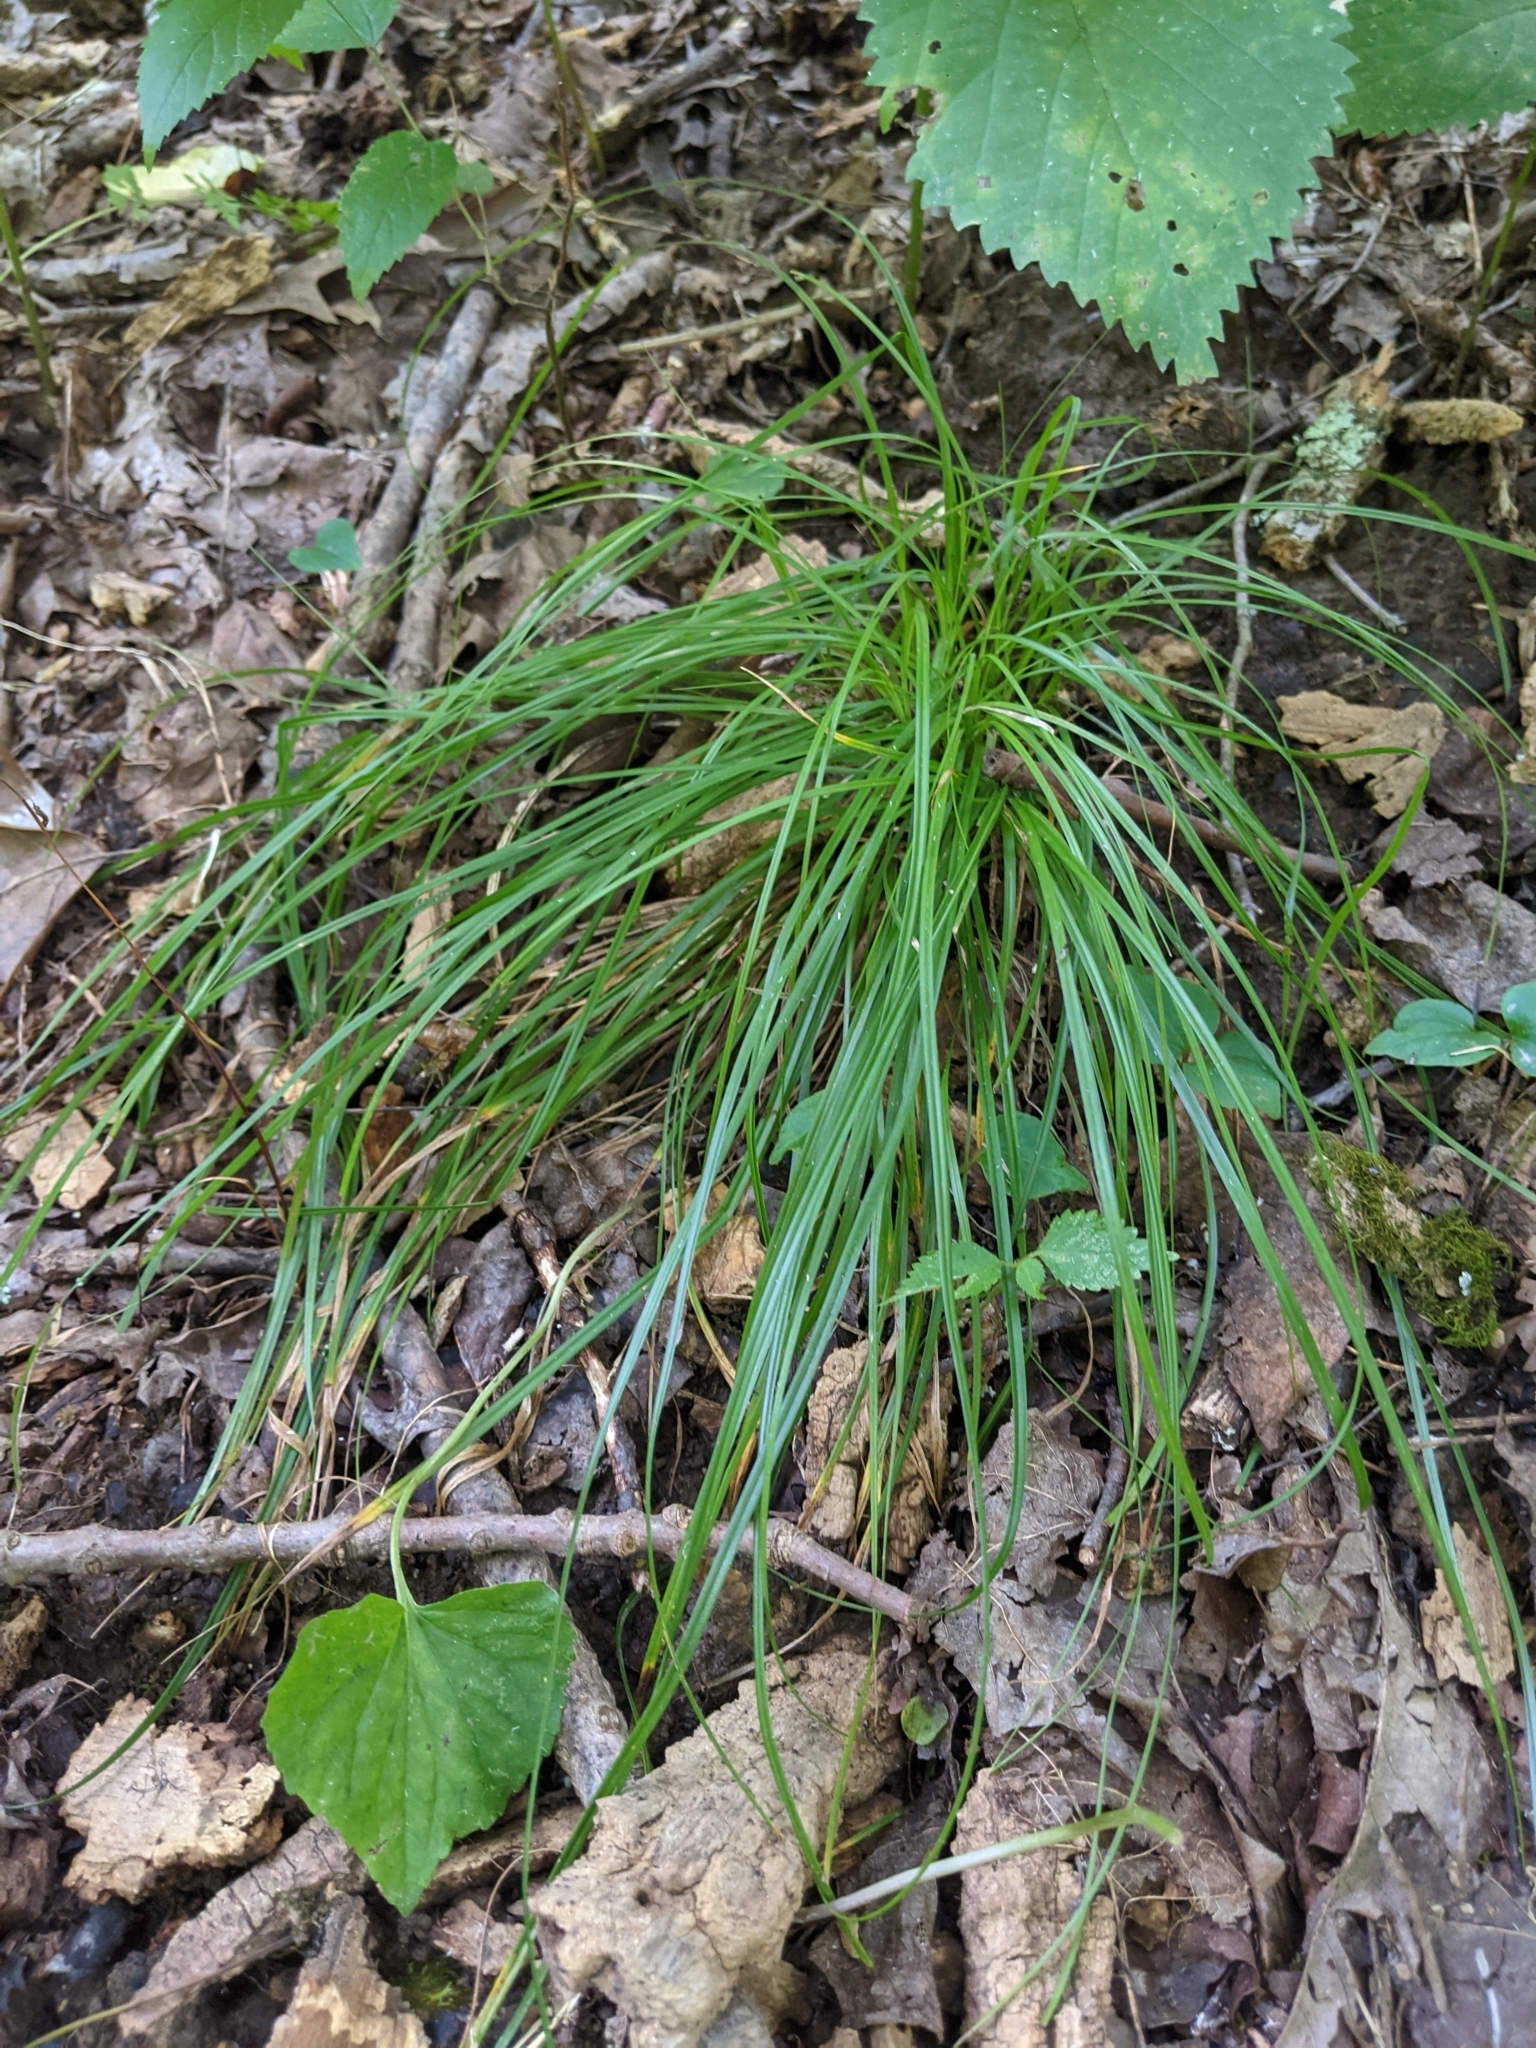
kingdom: Plantae
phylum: Tracheophyta
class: Liliopsida
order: Poales
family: Cyperaceae
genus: Carex
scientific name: Carex
